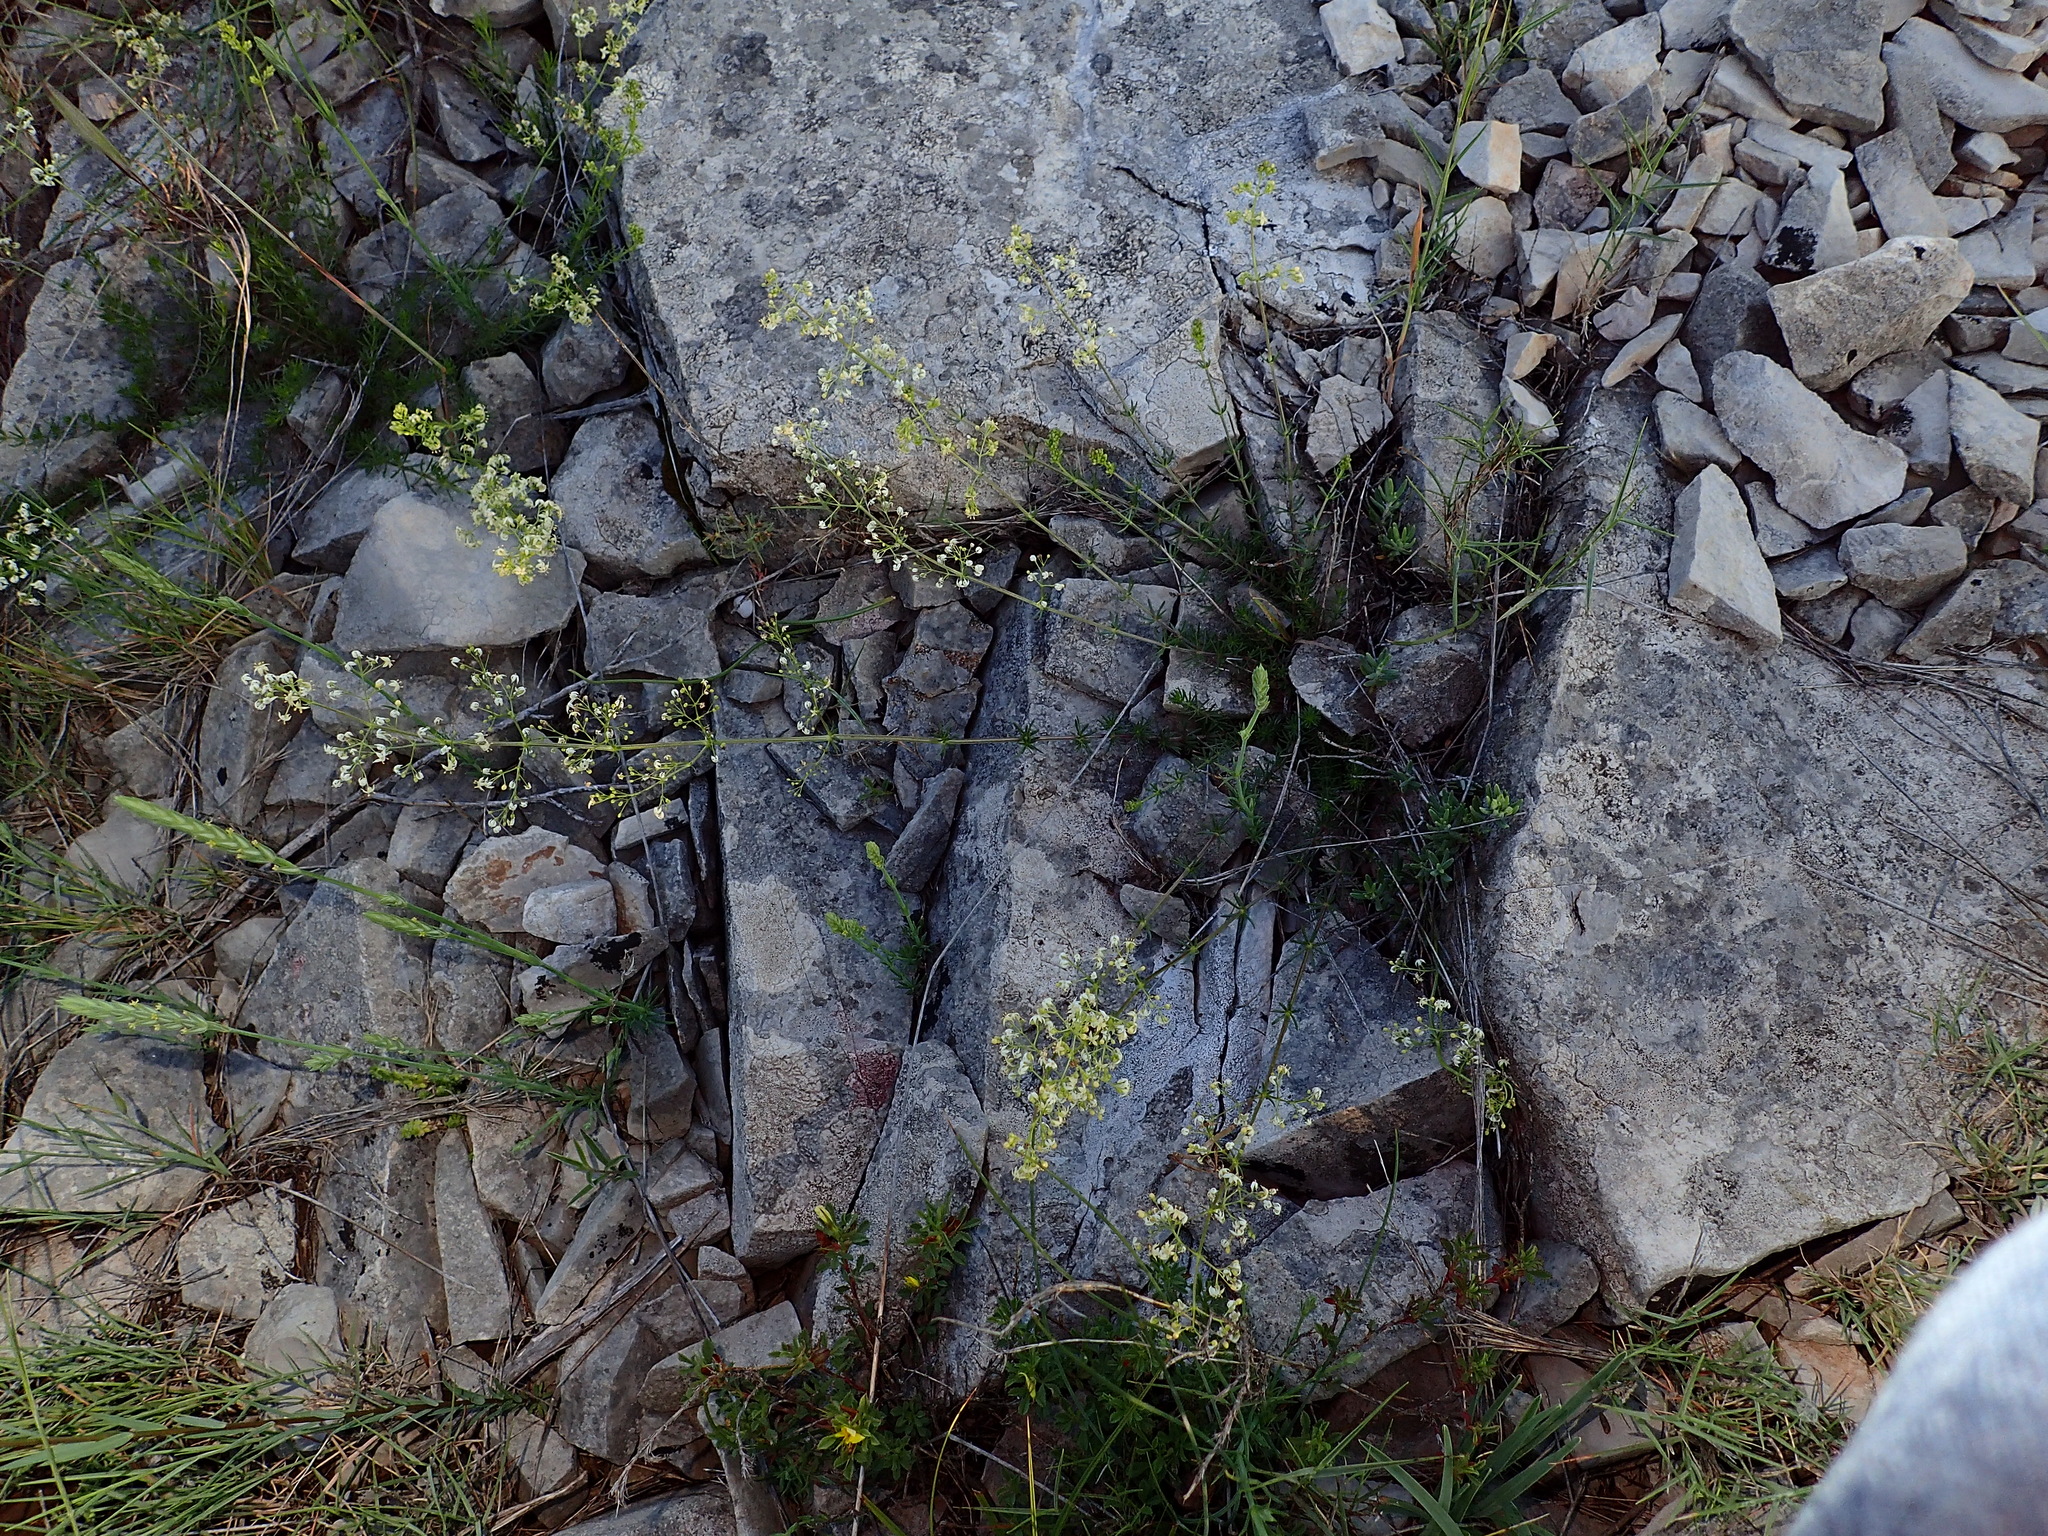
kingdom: Plantae
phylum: Tracheophyta
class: Magnoliopsida
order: Gentianales
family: Rubiaceae
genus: Galium
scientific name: Galium lucidum
